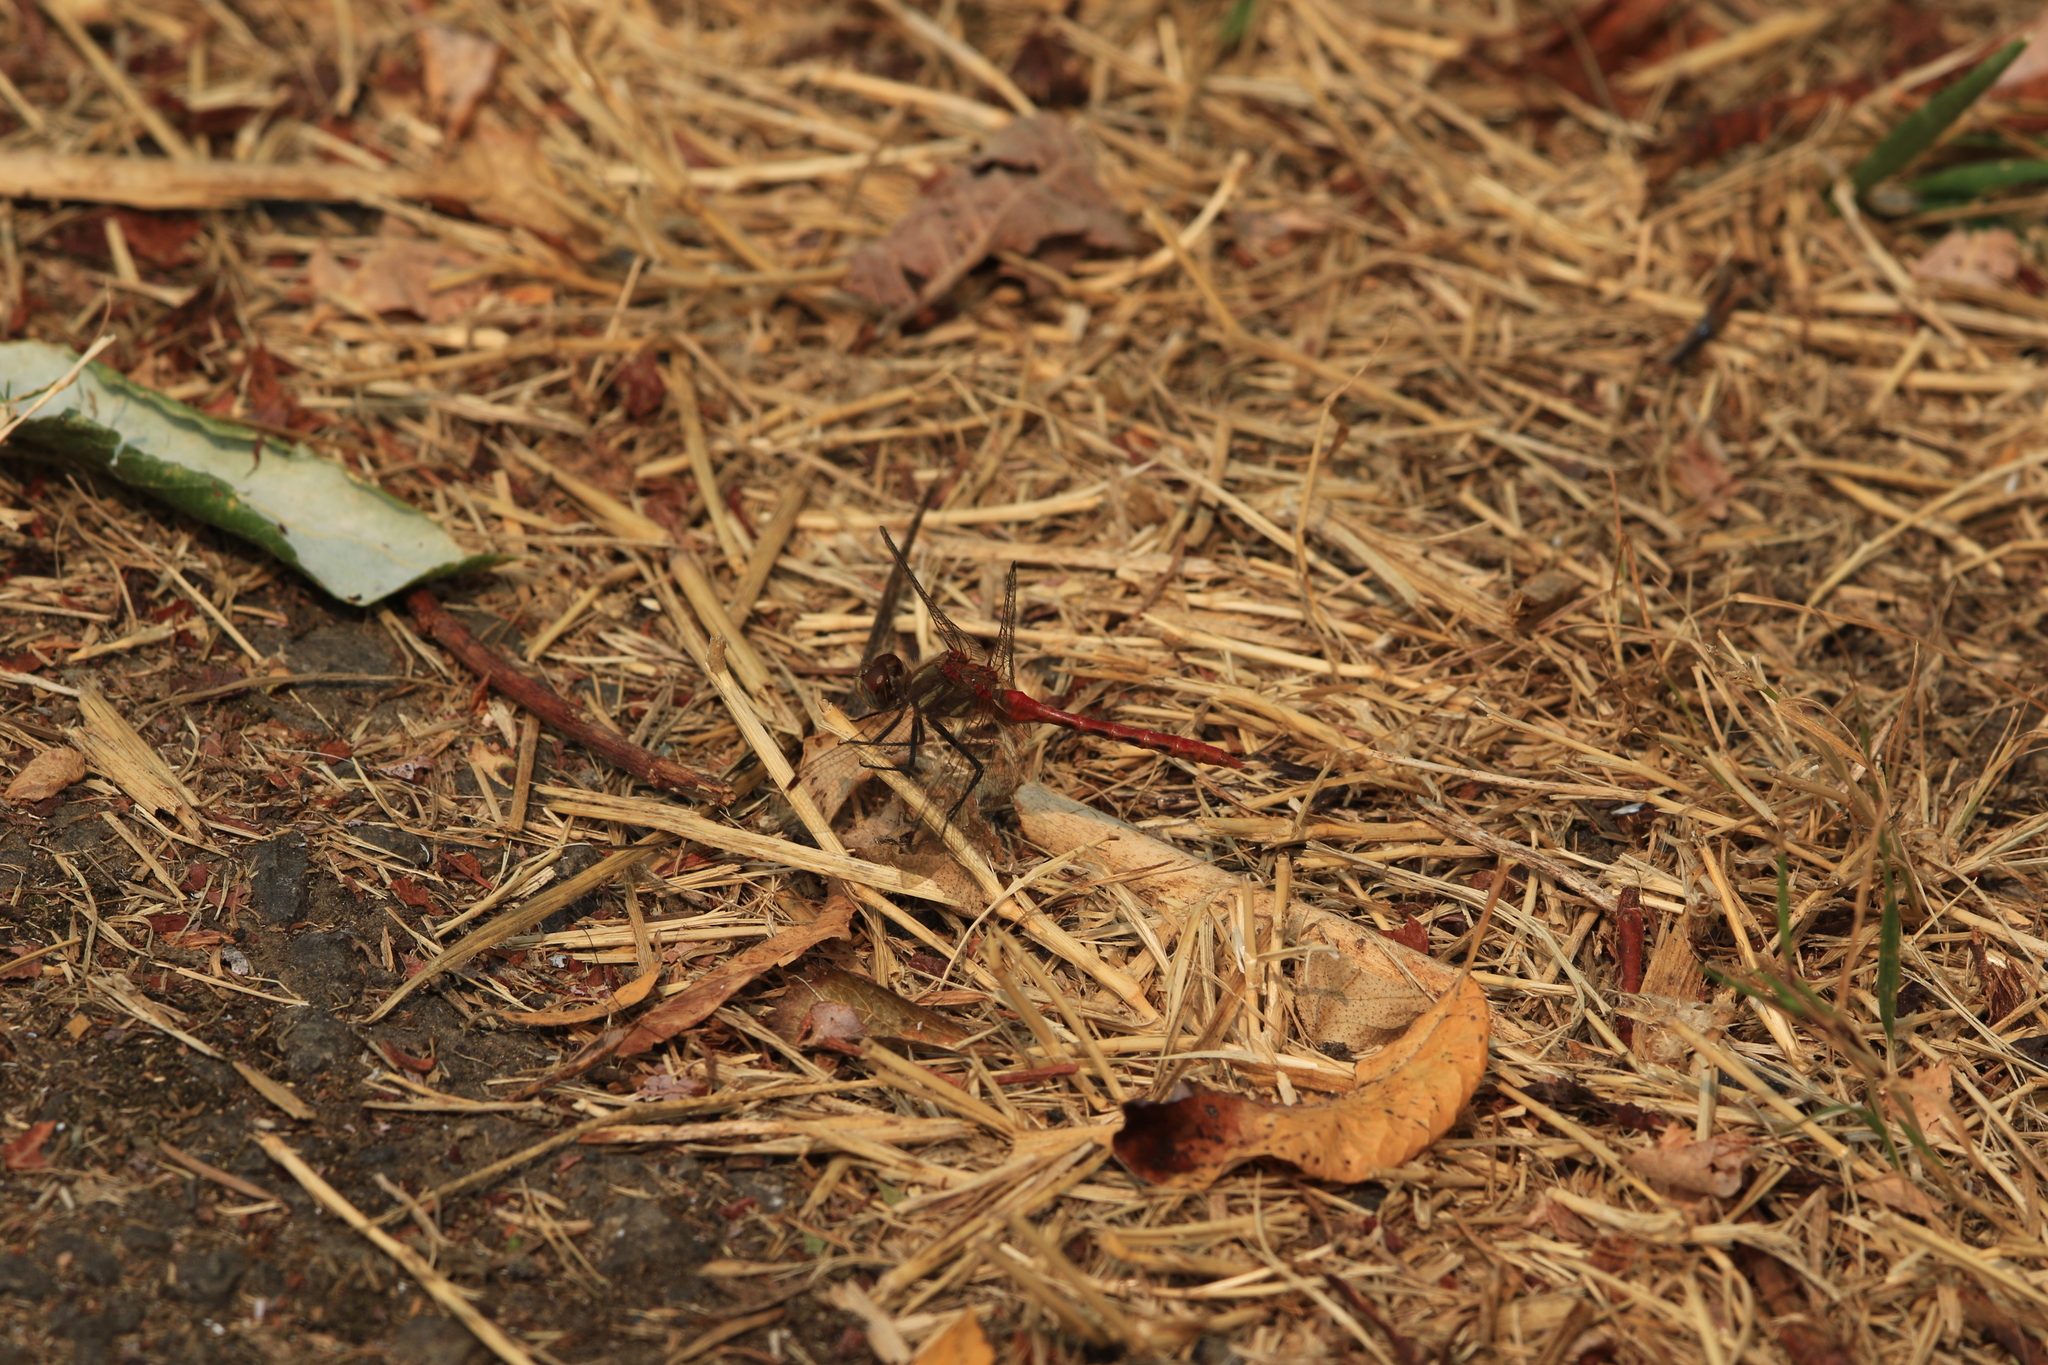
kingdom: Animalia
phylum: Arthropoda
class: Insecta
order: Odonata
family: Libellulidae
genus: Sympetrum
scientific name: Sympetrum pallipes
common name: Striped meadowhawk
